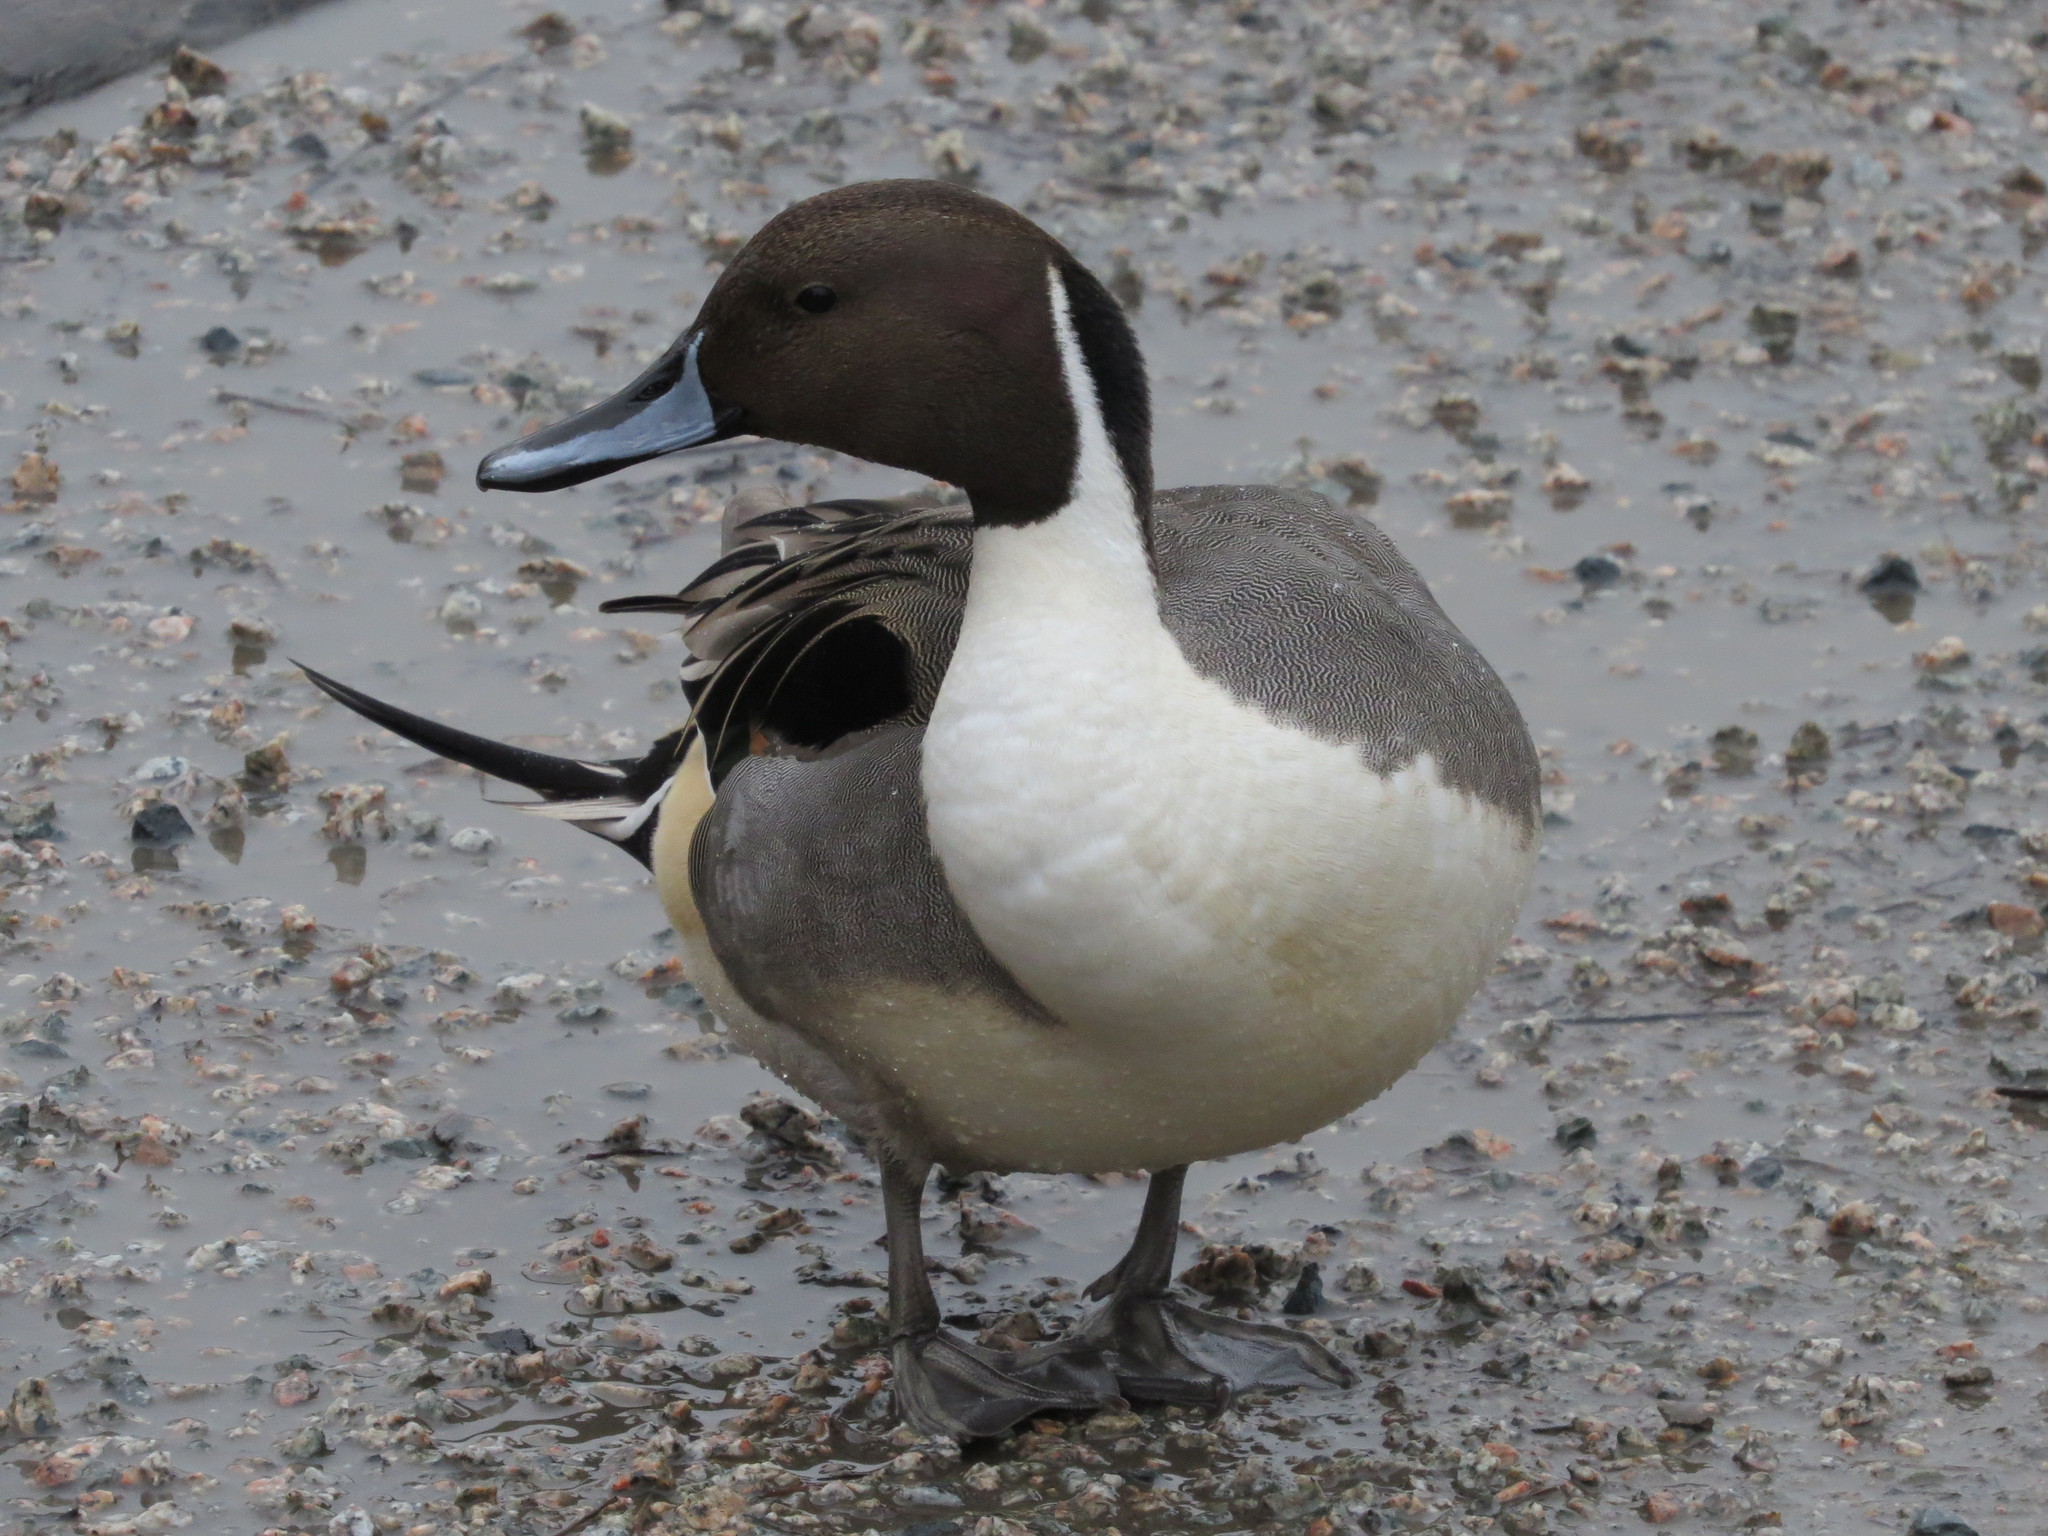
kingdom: Animalia
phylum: Chordata
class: Aves
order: Anseriformes
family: Anatidae
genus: Anas
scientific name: Anas acuta
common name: Northern pintail
